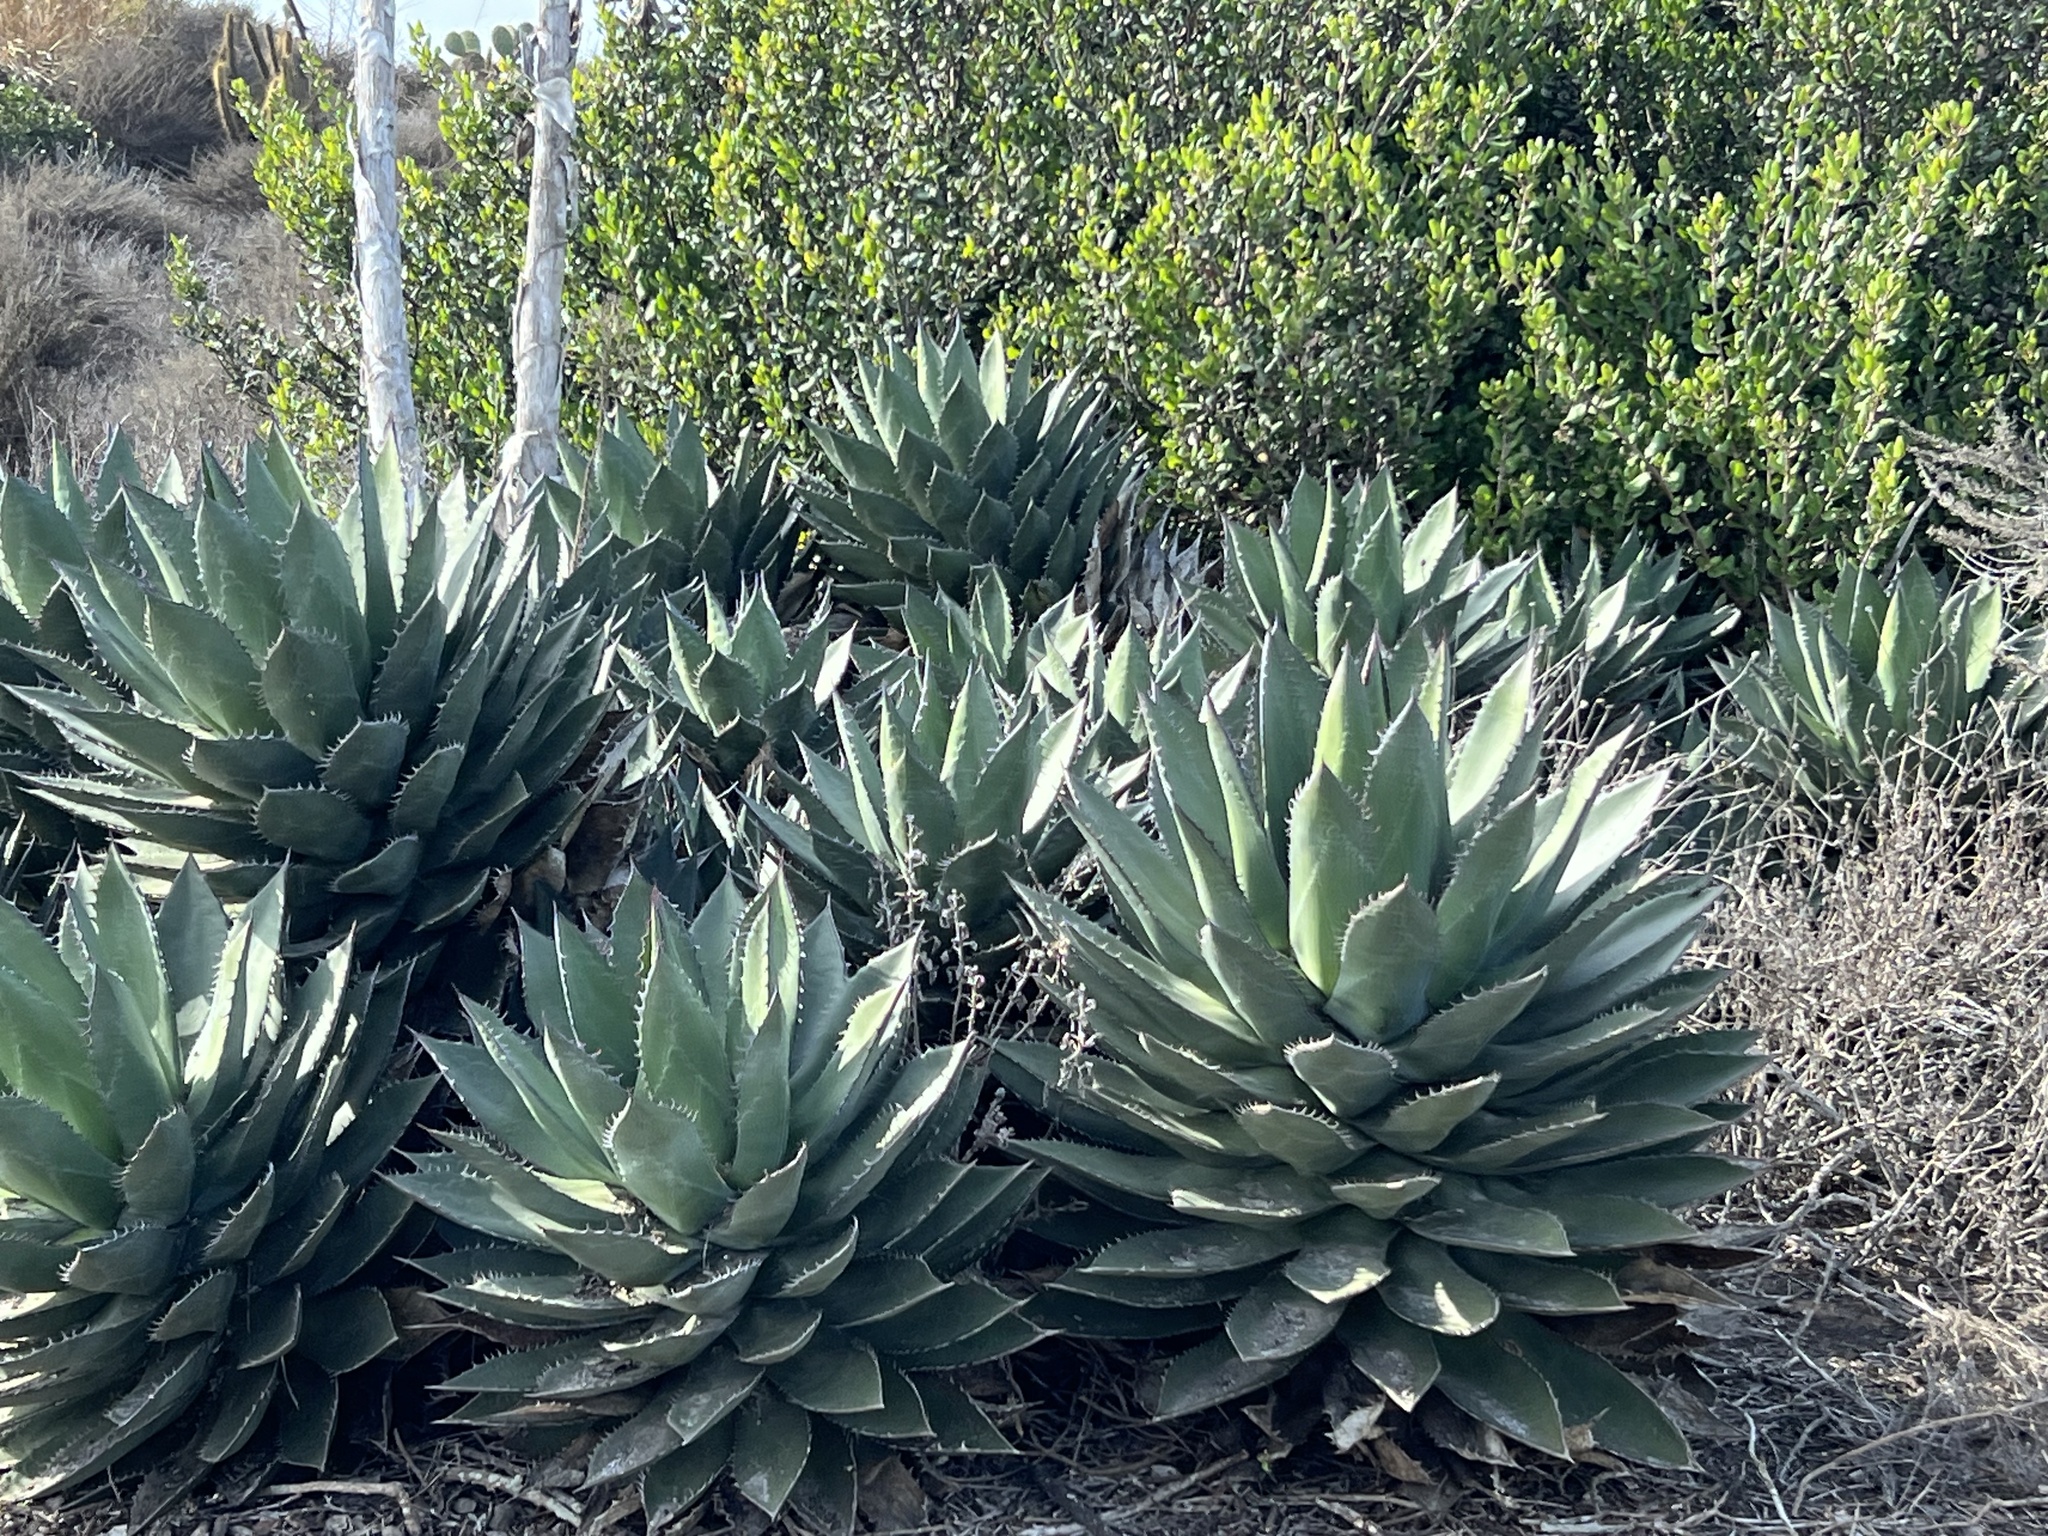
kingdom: Plantae
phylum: Tracheophyta
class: Liliopsida
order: Asparagales
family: Asparagaceae
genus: Agave
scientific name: Agave shawii
